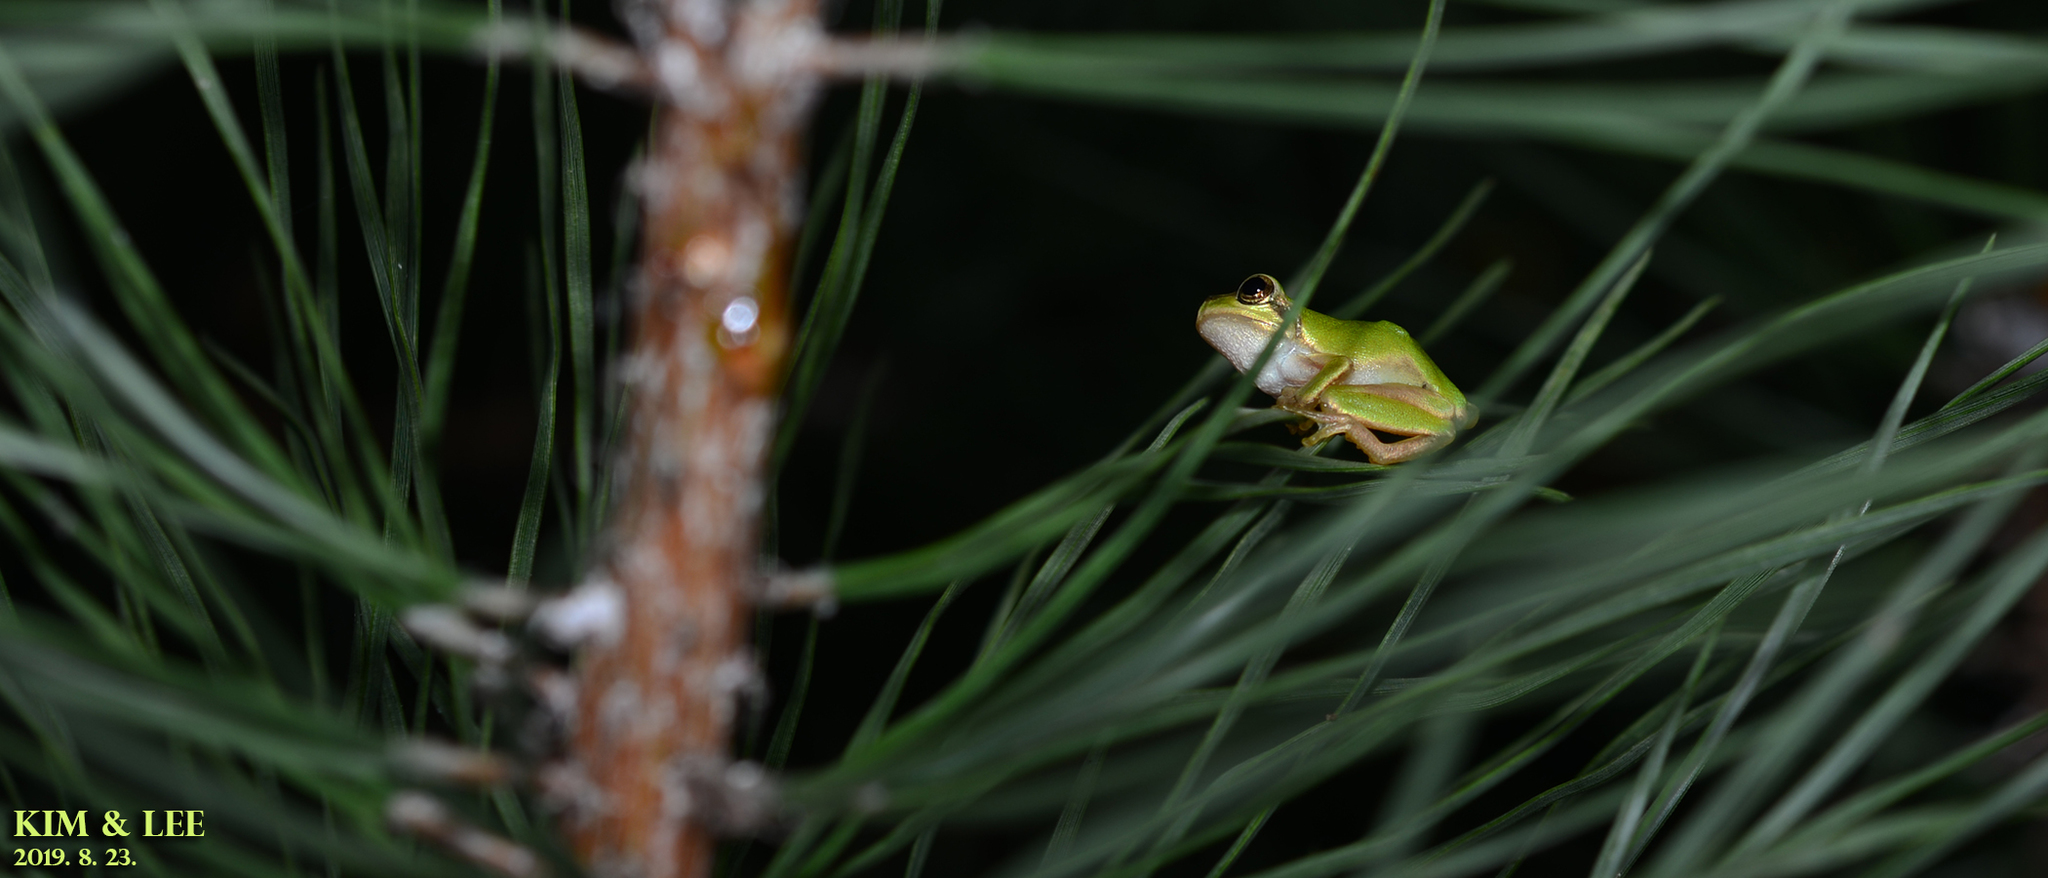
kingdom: Animalia
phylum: Chordata
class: Amphibia
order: Anura
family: Hylidae
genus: Dryophytes
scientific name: Dryophytes japonicus
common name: Japanese treefrog
